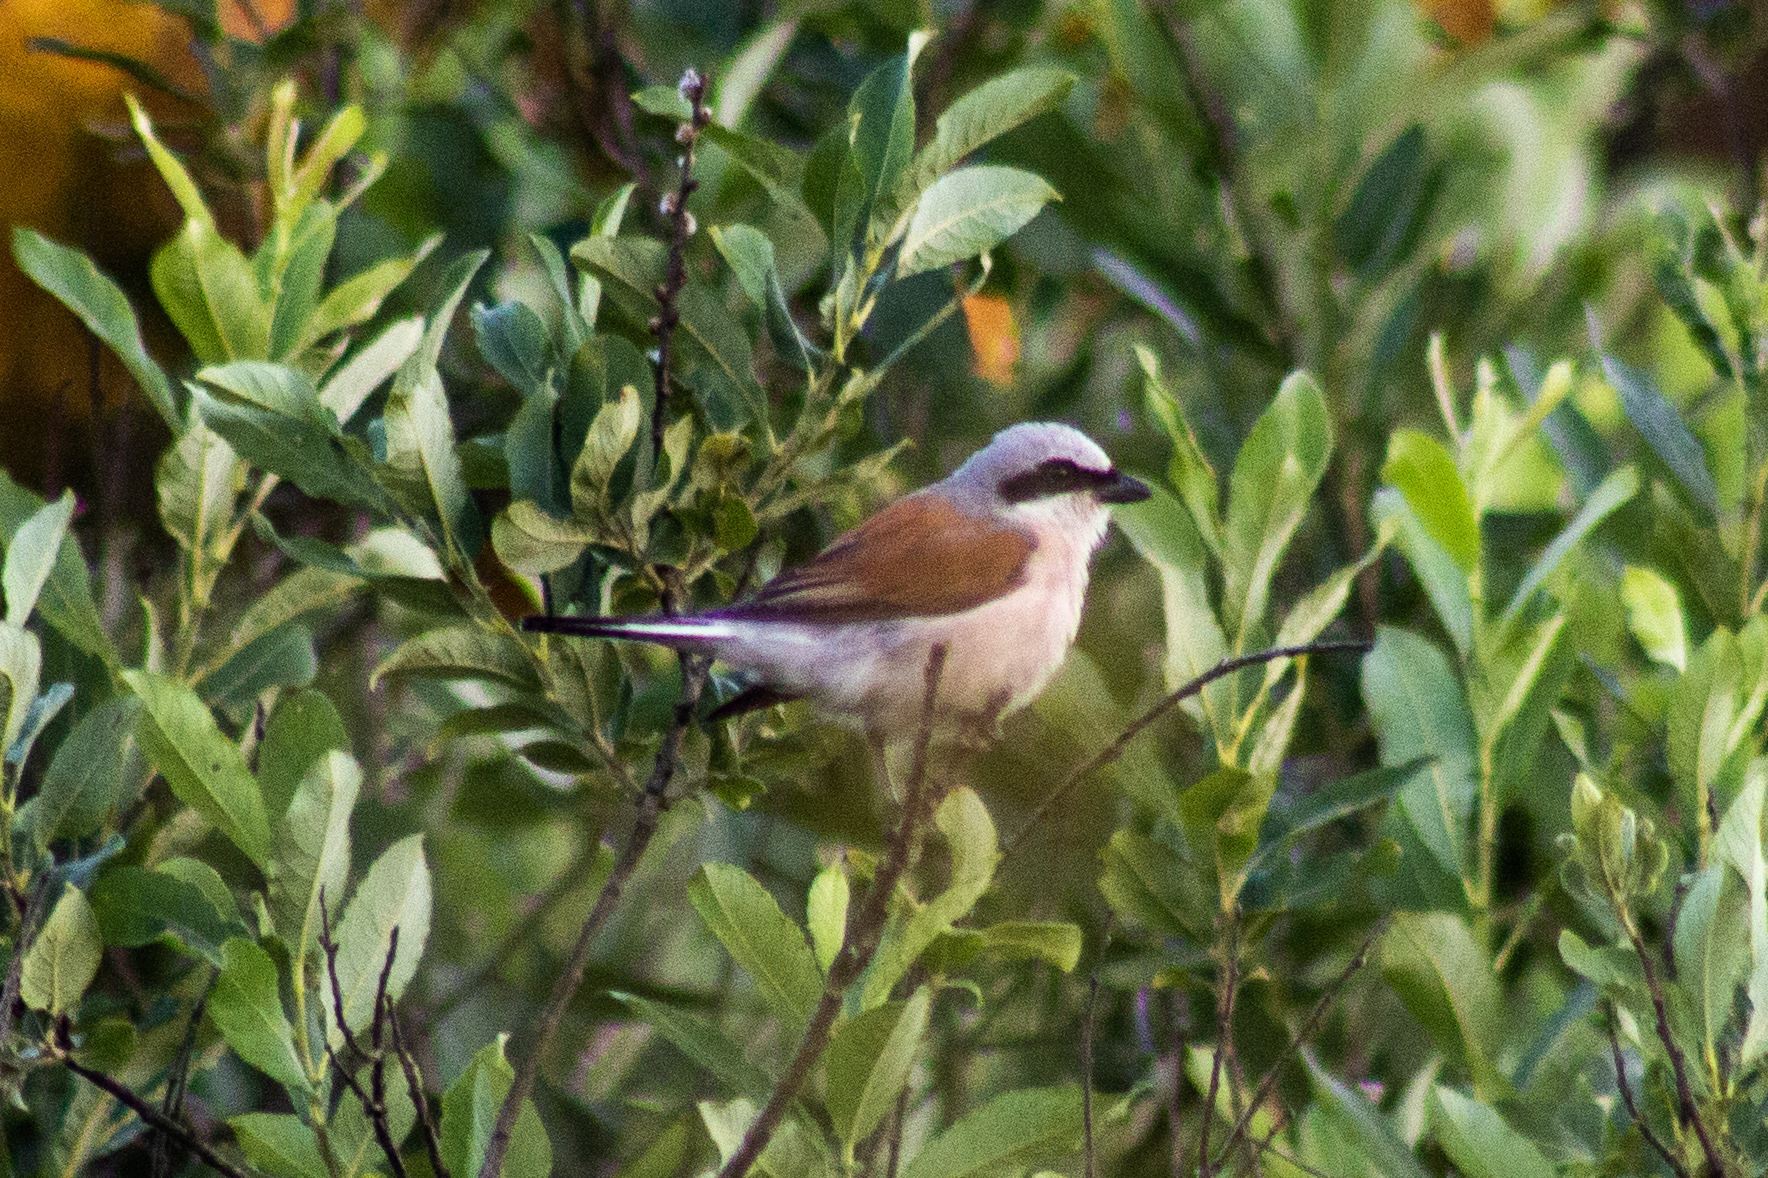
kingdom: Animalia
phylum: Chordata
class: Aves
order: Passeriformes
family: Laniidae
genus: Lanius
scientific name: Lanius collurio
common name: Red-backed shrike
